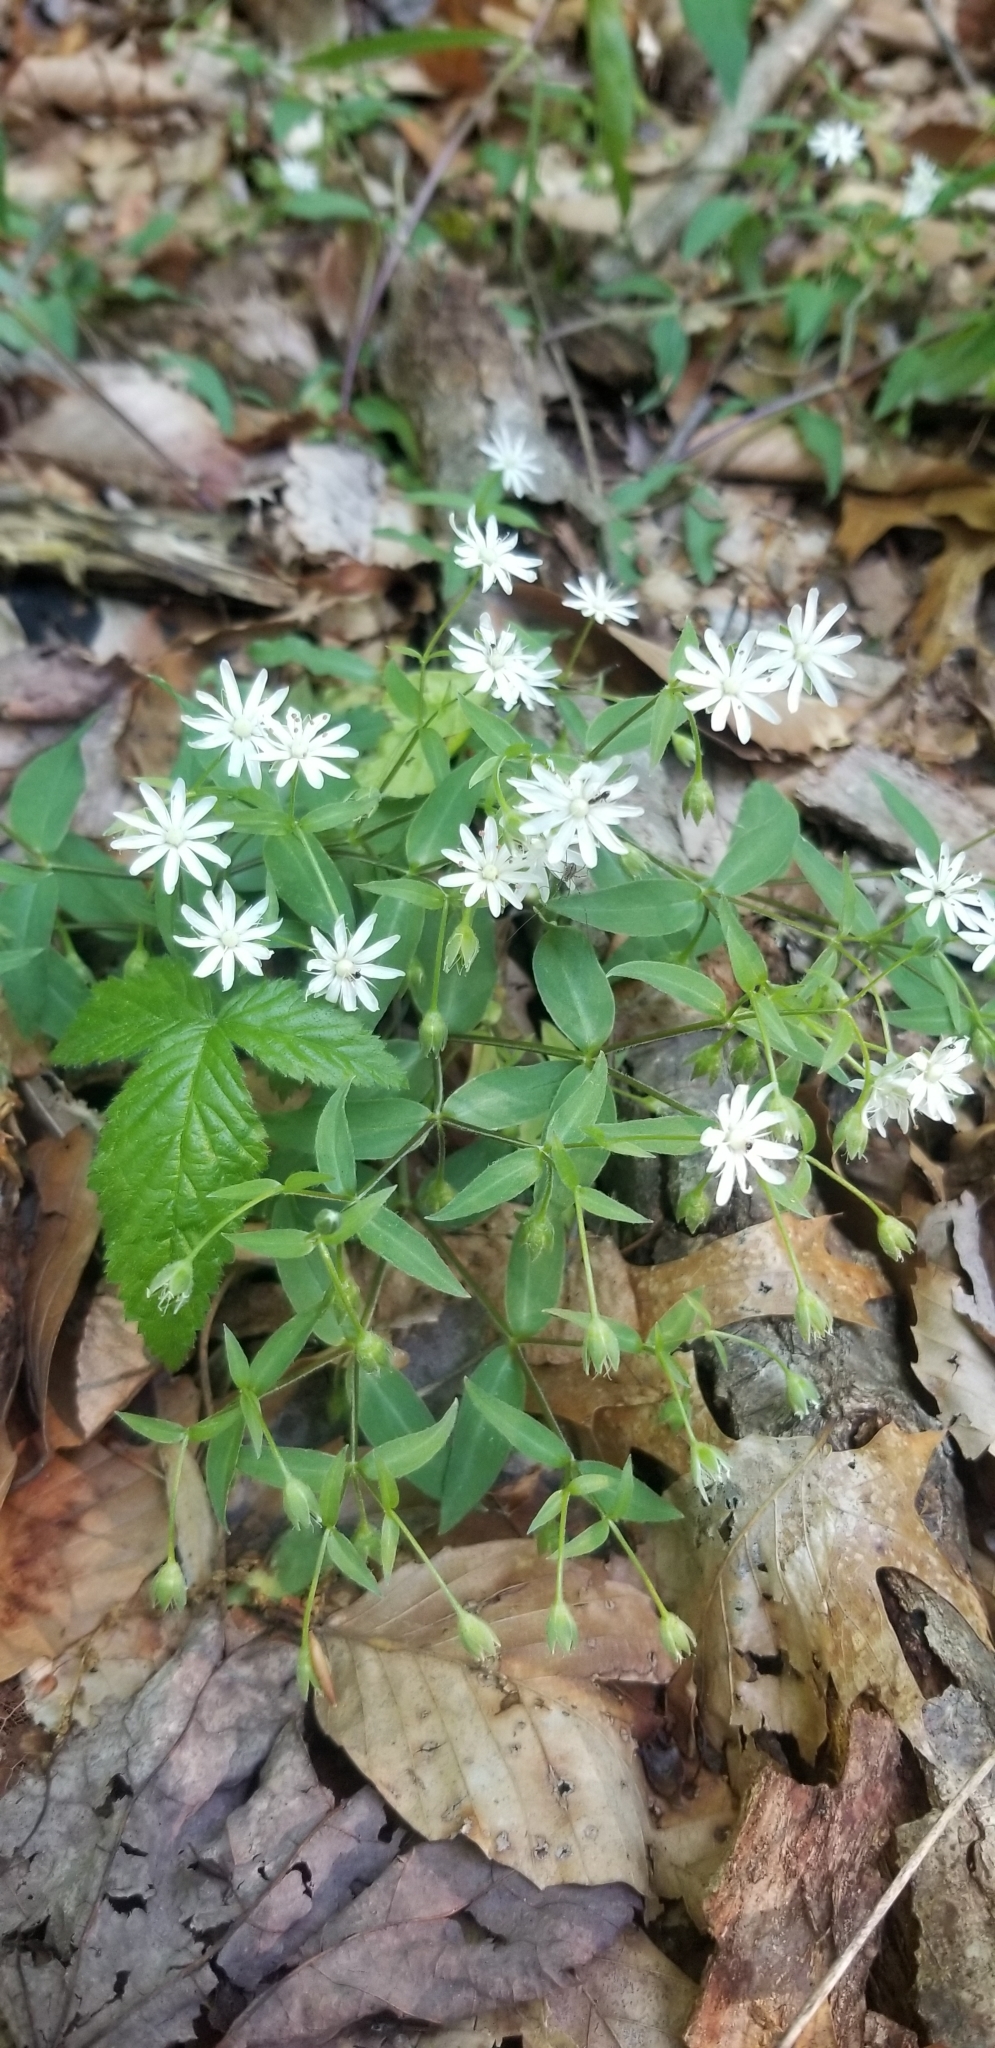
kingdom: Plantae
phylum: Tracheophyta
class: Magnoliopsida
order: Caryophyllales
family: Caryophyllaceae
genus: Stellaria
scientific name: Stellaria pubera
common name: Star chickweed
